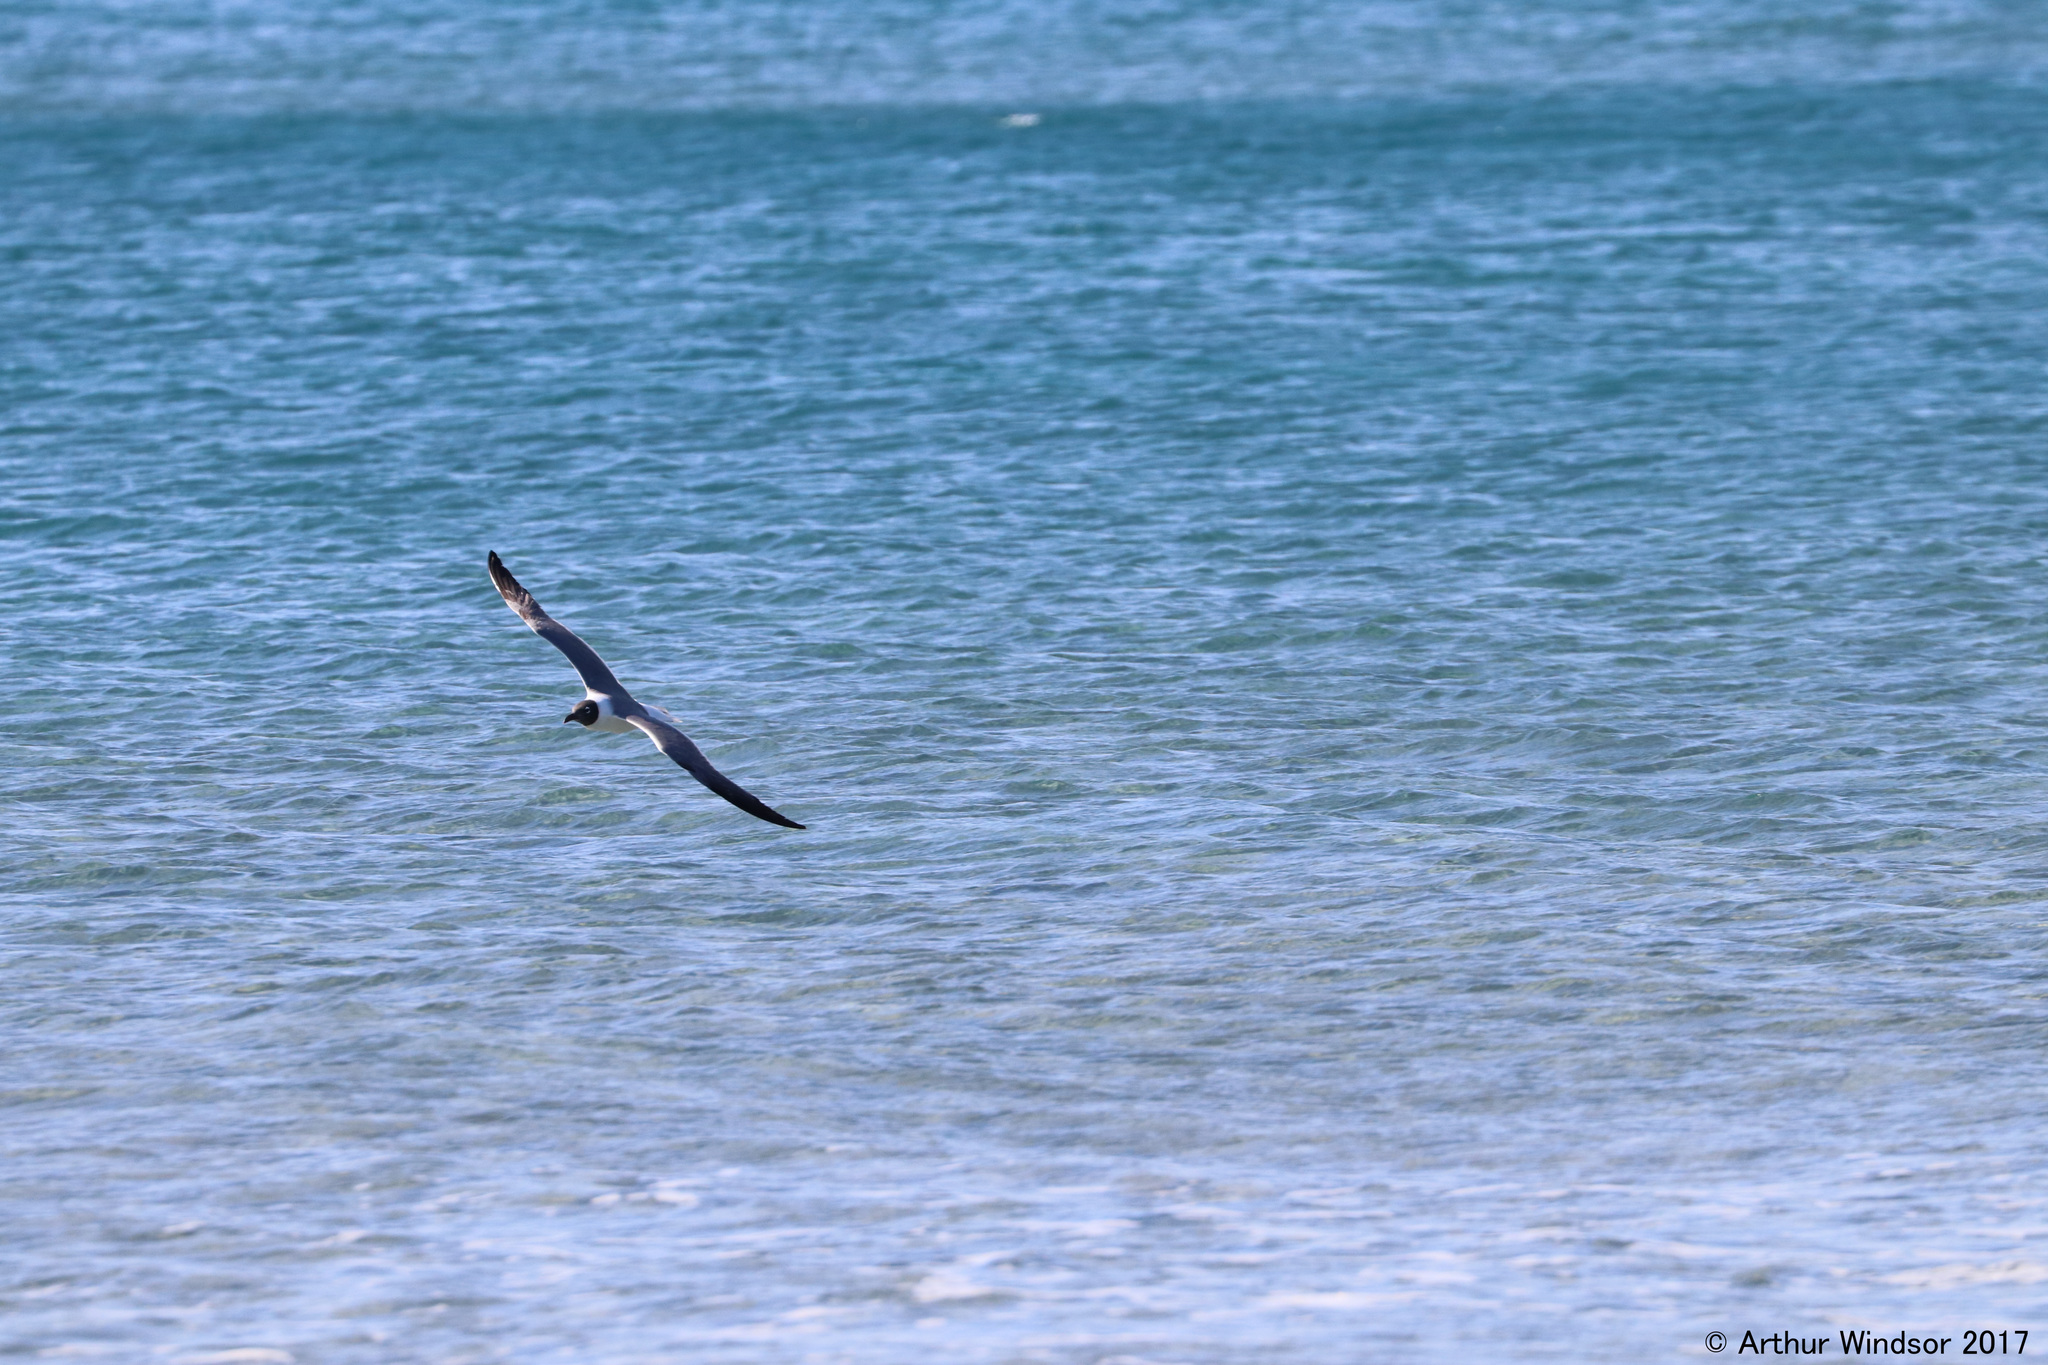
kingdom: Animalia
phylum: Chordata
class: Aves
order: Charadriiformes
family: Laridae
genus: Leucophaeus
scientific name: Leucophaeus atricilla
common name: Laughing gull
